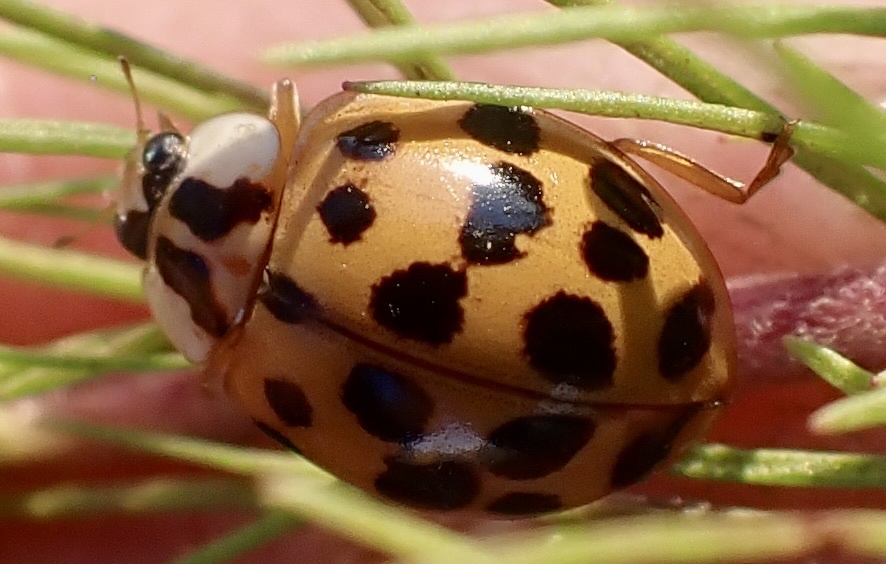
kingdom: Animalia
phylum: Arthropoda
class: Insecta
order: Coleoptera
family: Coccinellidae
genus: Harmonia
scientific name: Harmonia axyridis
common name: Harlequin ladybird
